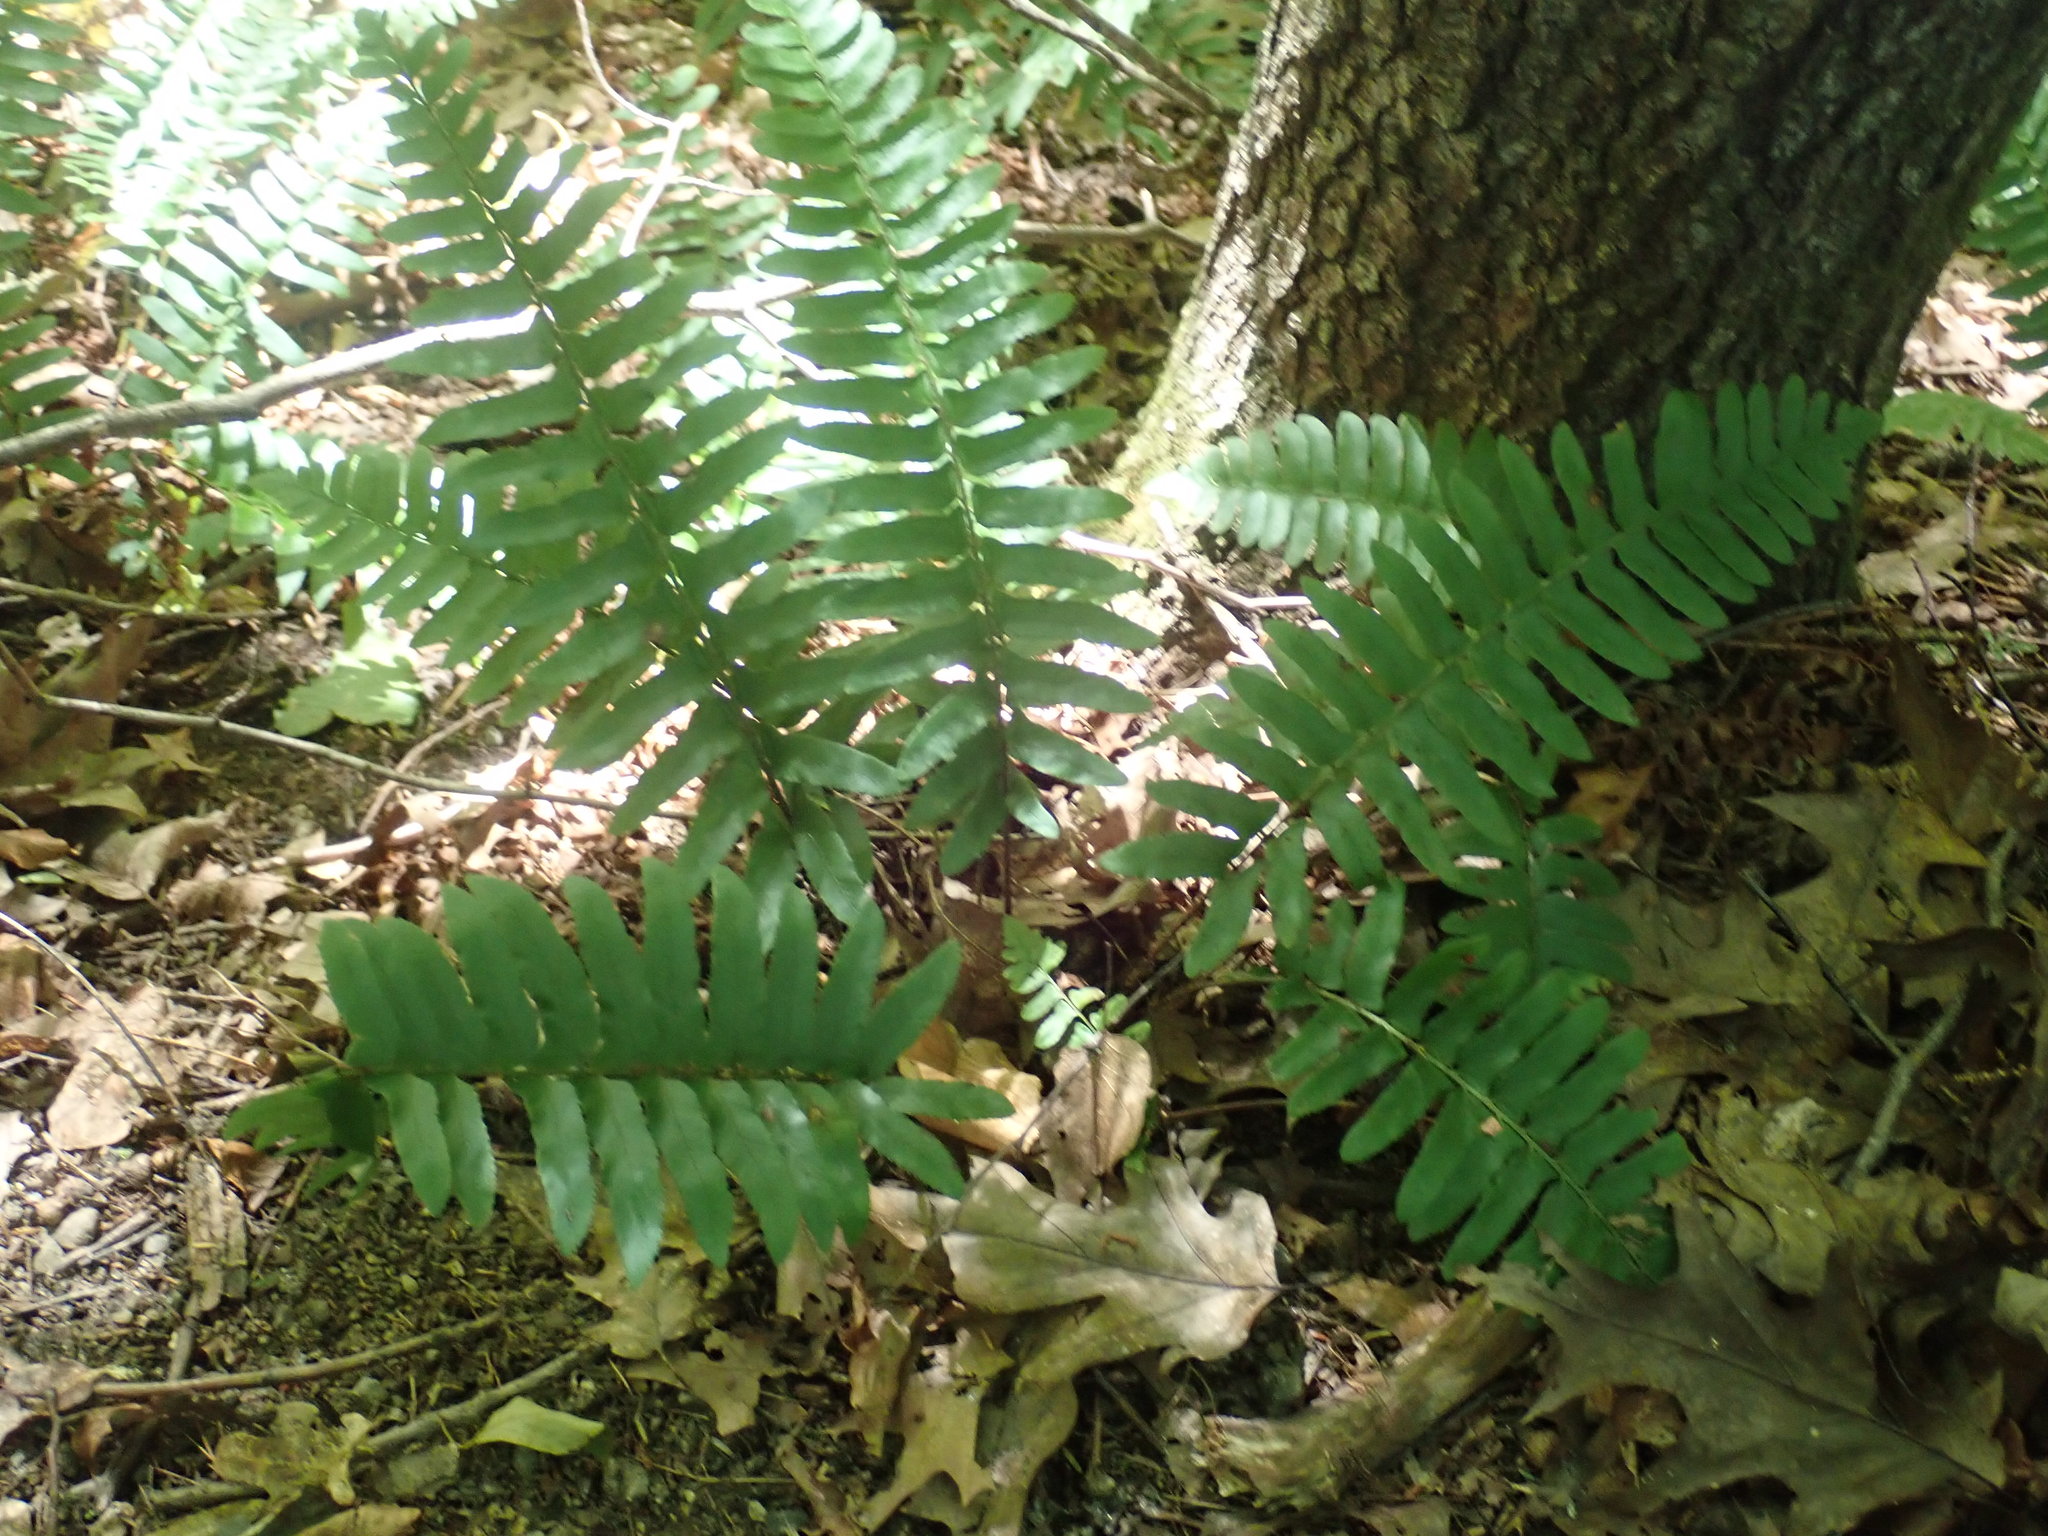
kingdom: Plantae
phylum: Tracheophyta
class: Polypodiopsida
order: Polypodiales
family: Dryopteridaceae
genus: Polystichum
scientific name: Polystichum acrostichoides
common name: Christmas fern
